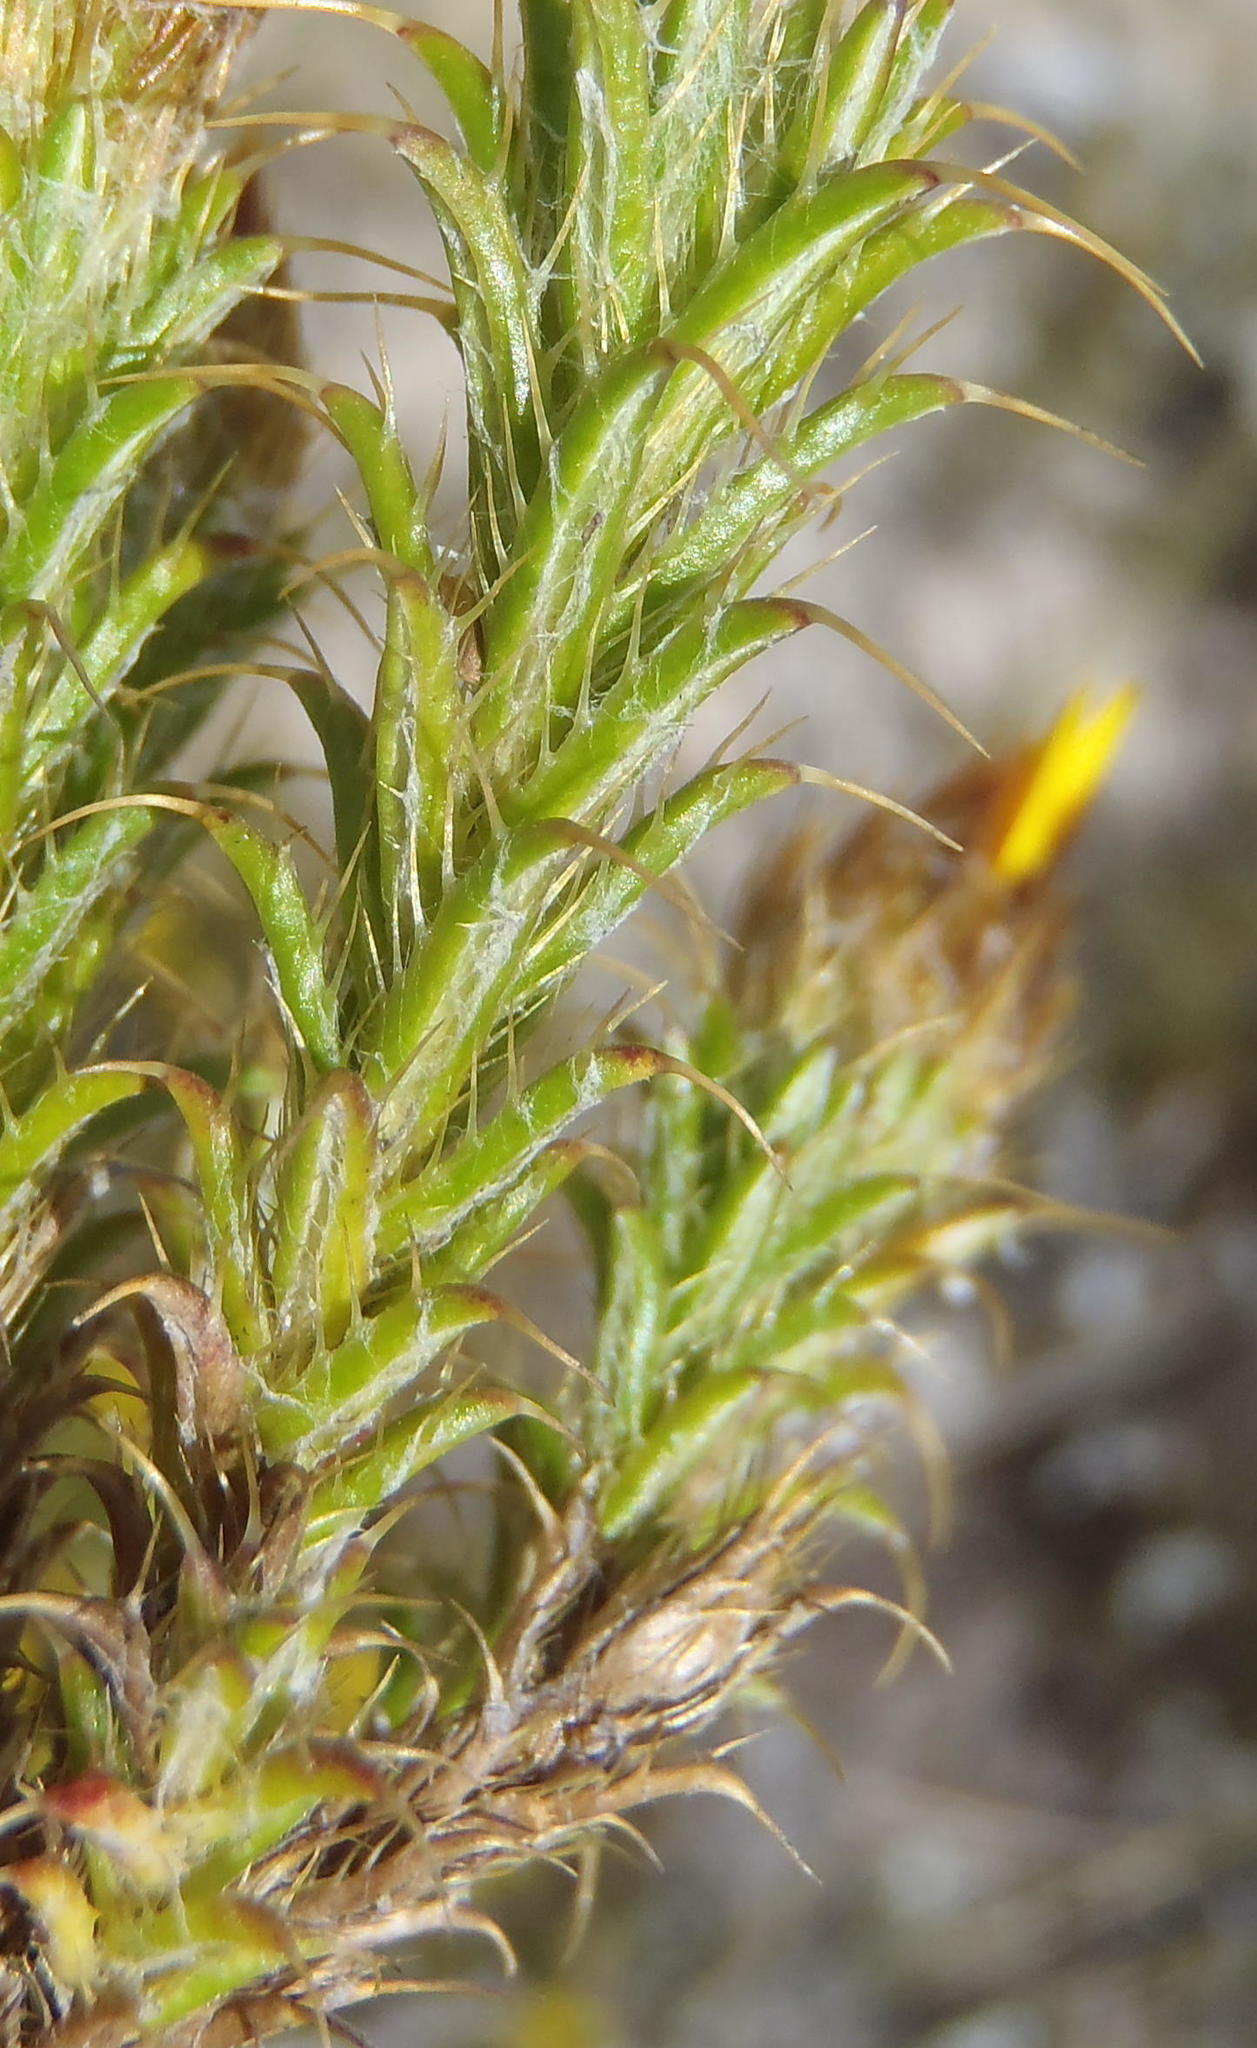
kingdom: Plantae
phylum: Tracheophyta
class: Magnoliopsida
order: Asterales
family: Asteraceae
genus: Cullumia
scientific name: Cullumia bisulca
